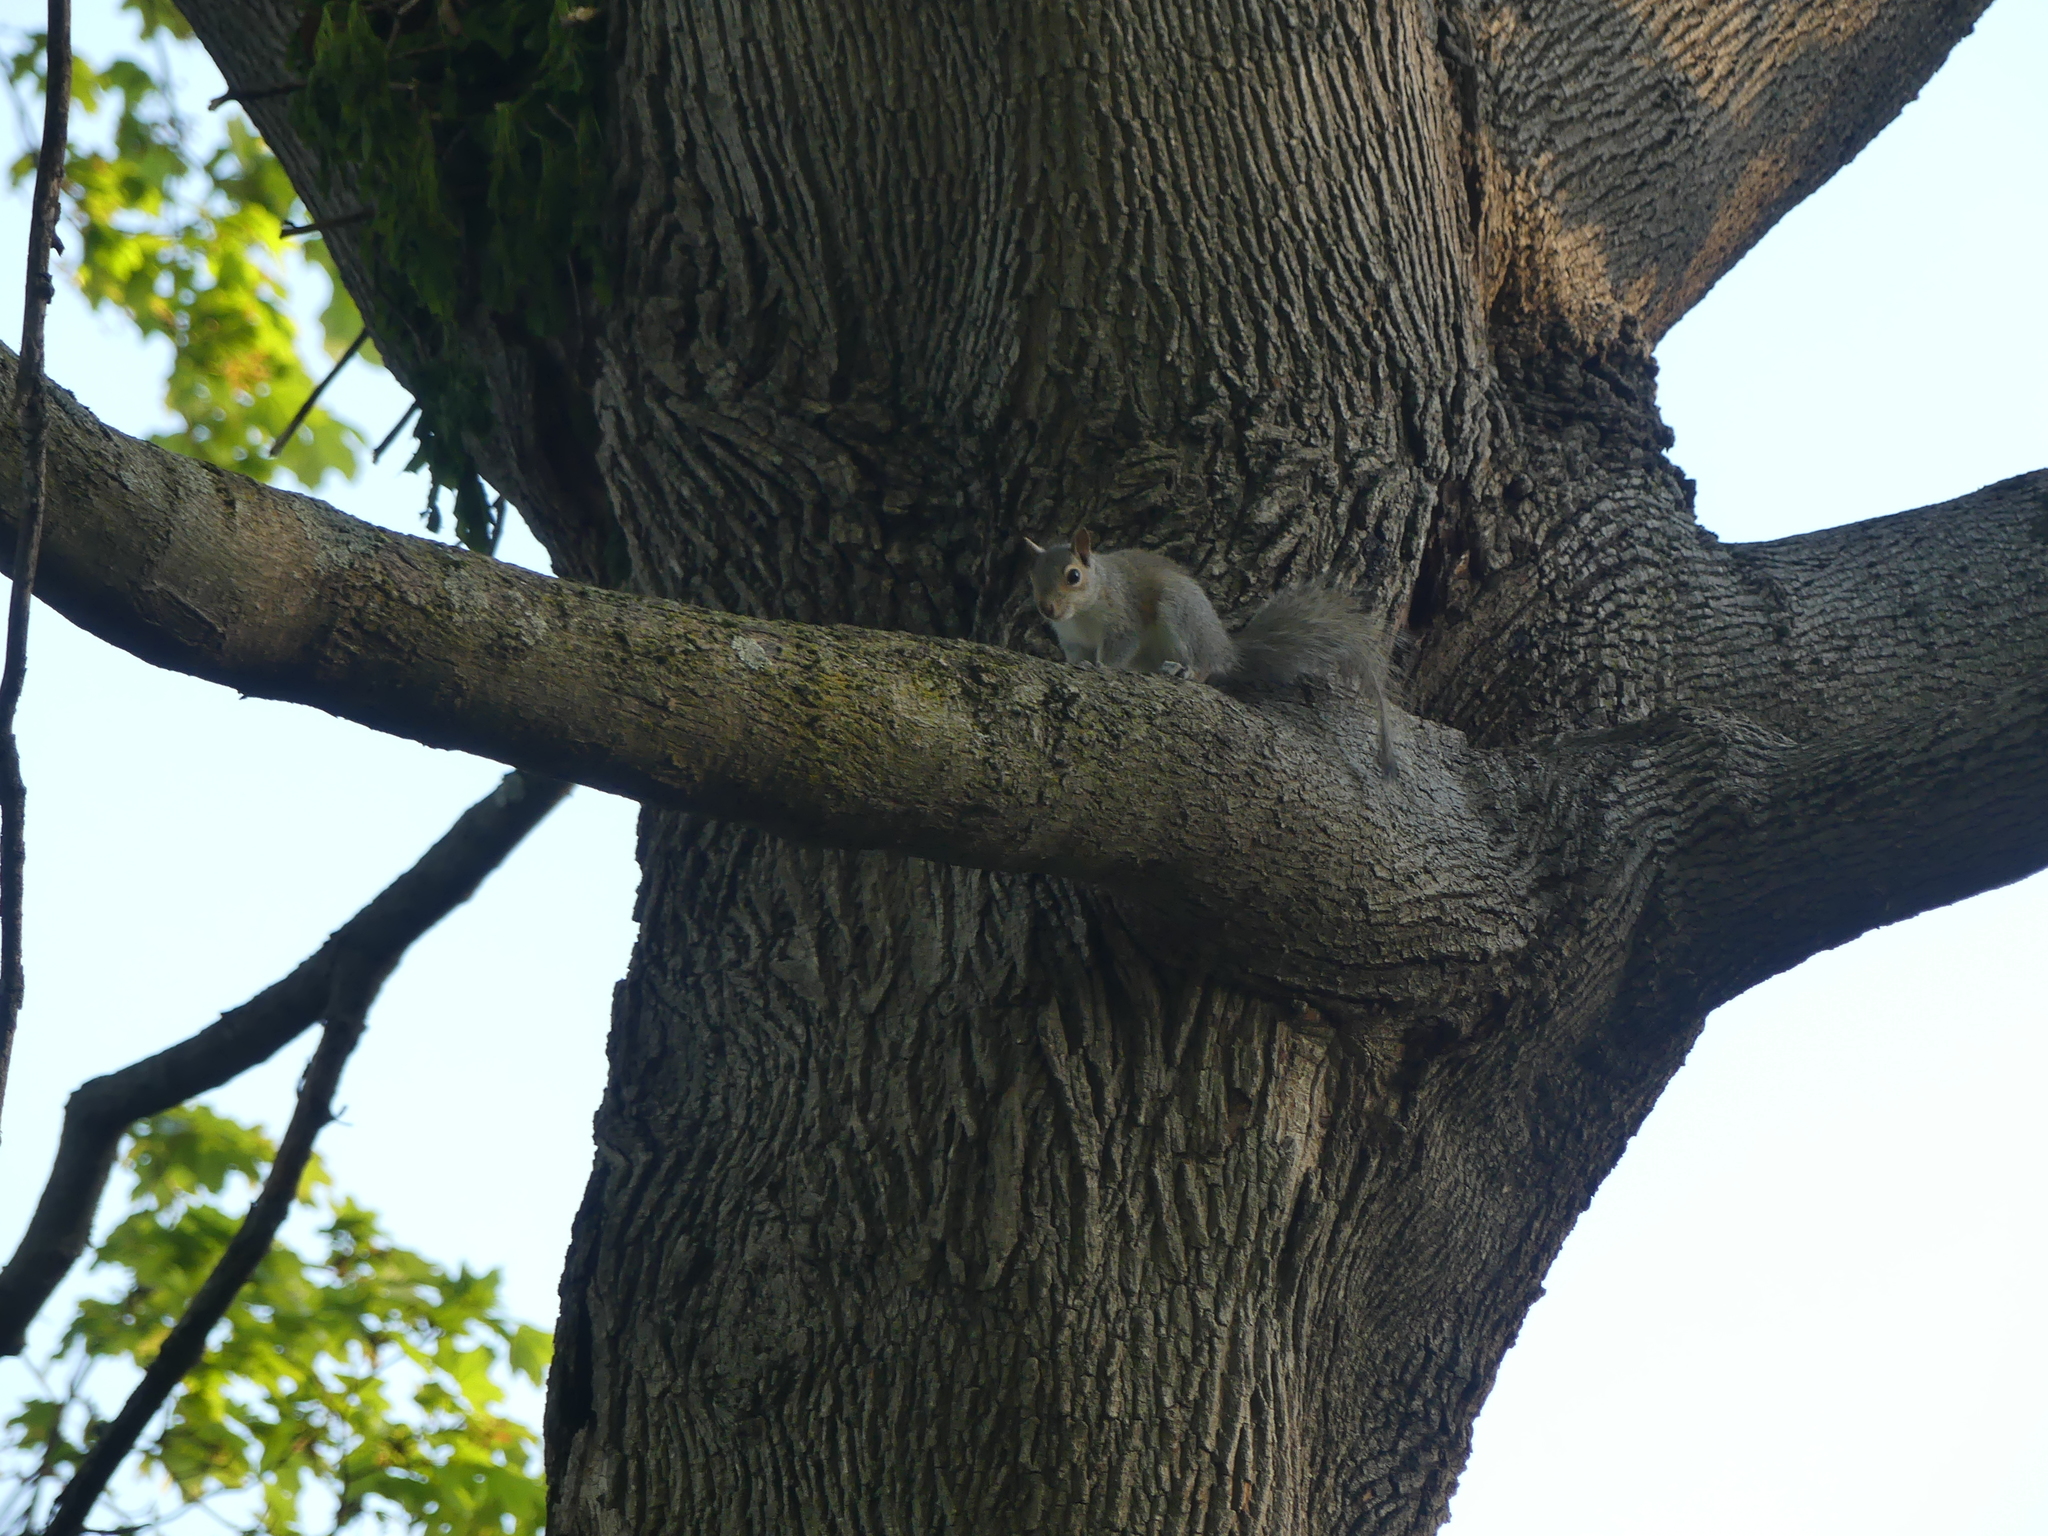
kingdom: Animalia
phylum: Chordata
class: Mammalia
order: Rodentia
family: Sciuridae
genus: Sciurus
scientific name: Sciurus carolinensis
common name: Eastern gray squirrel
